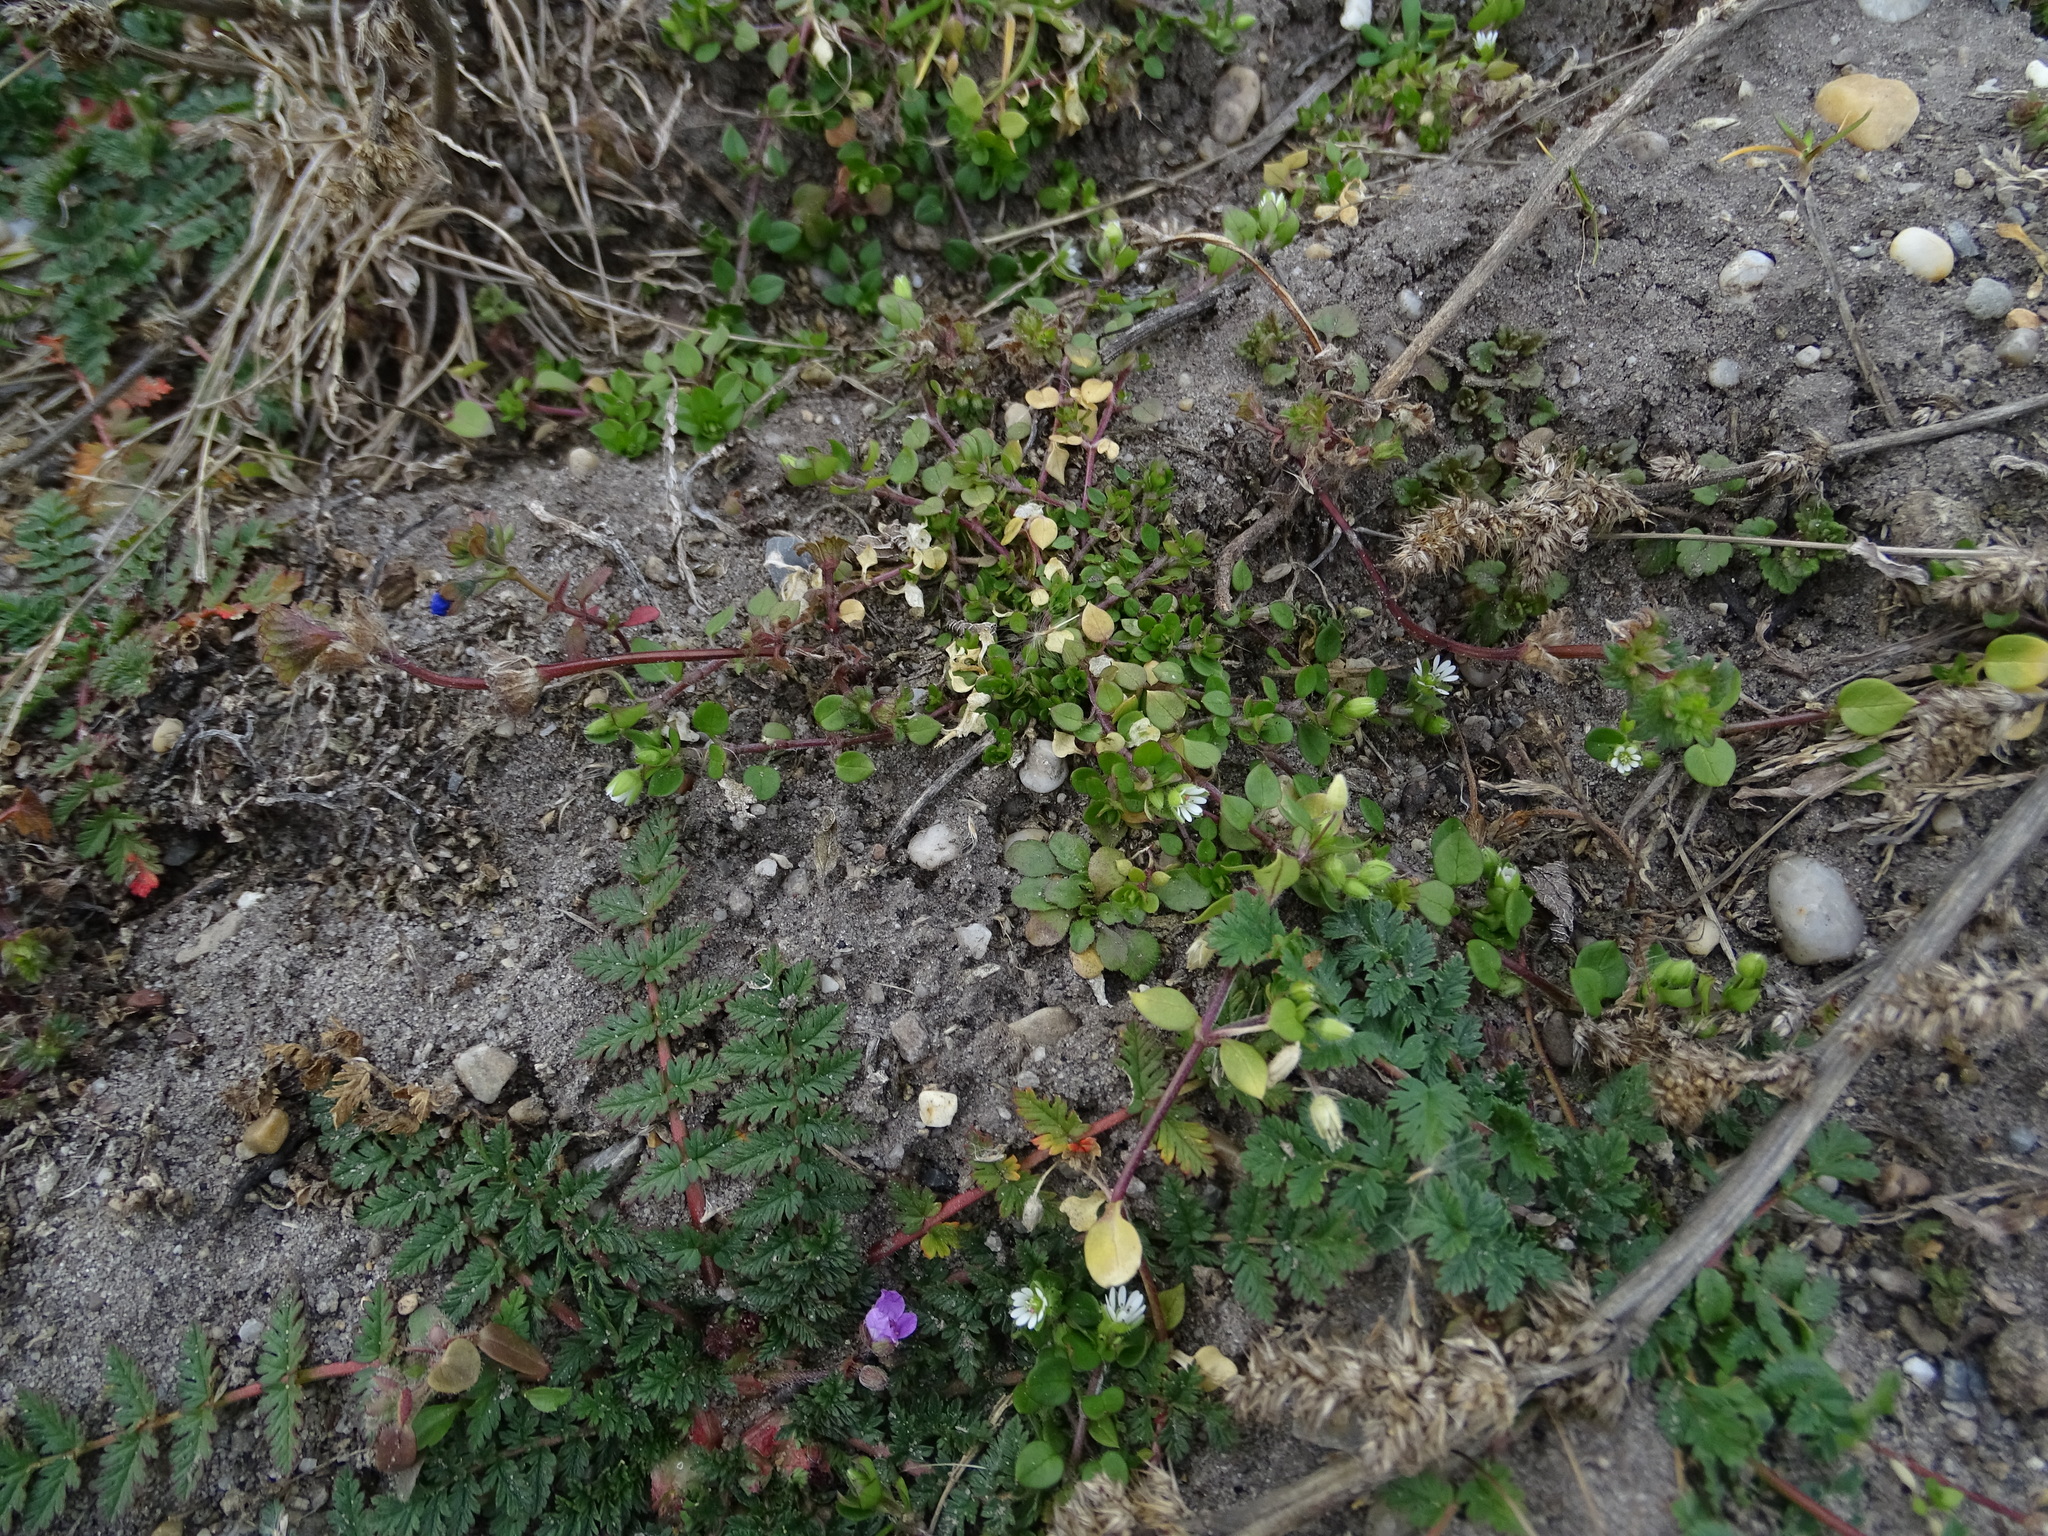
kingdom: Plantae
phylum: Tracheophyta
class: Magnoliopsida
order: Caryophyllales
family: Caryophyllaceae
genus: Stellaria
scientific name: Stellaria media
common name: Common chickweed
